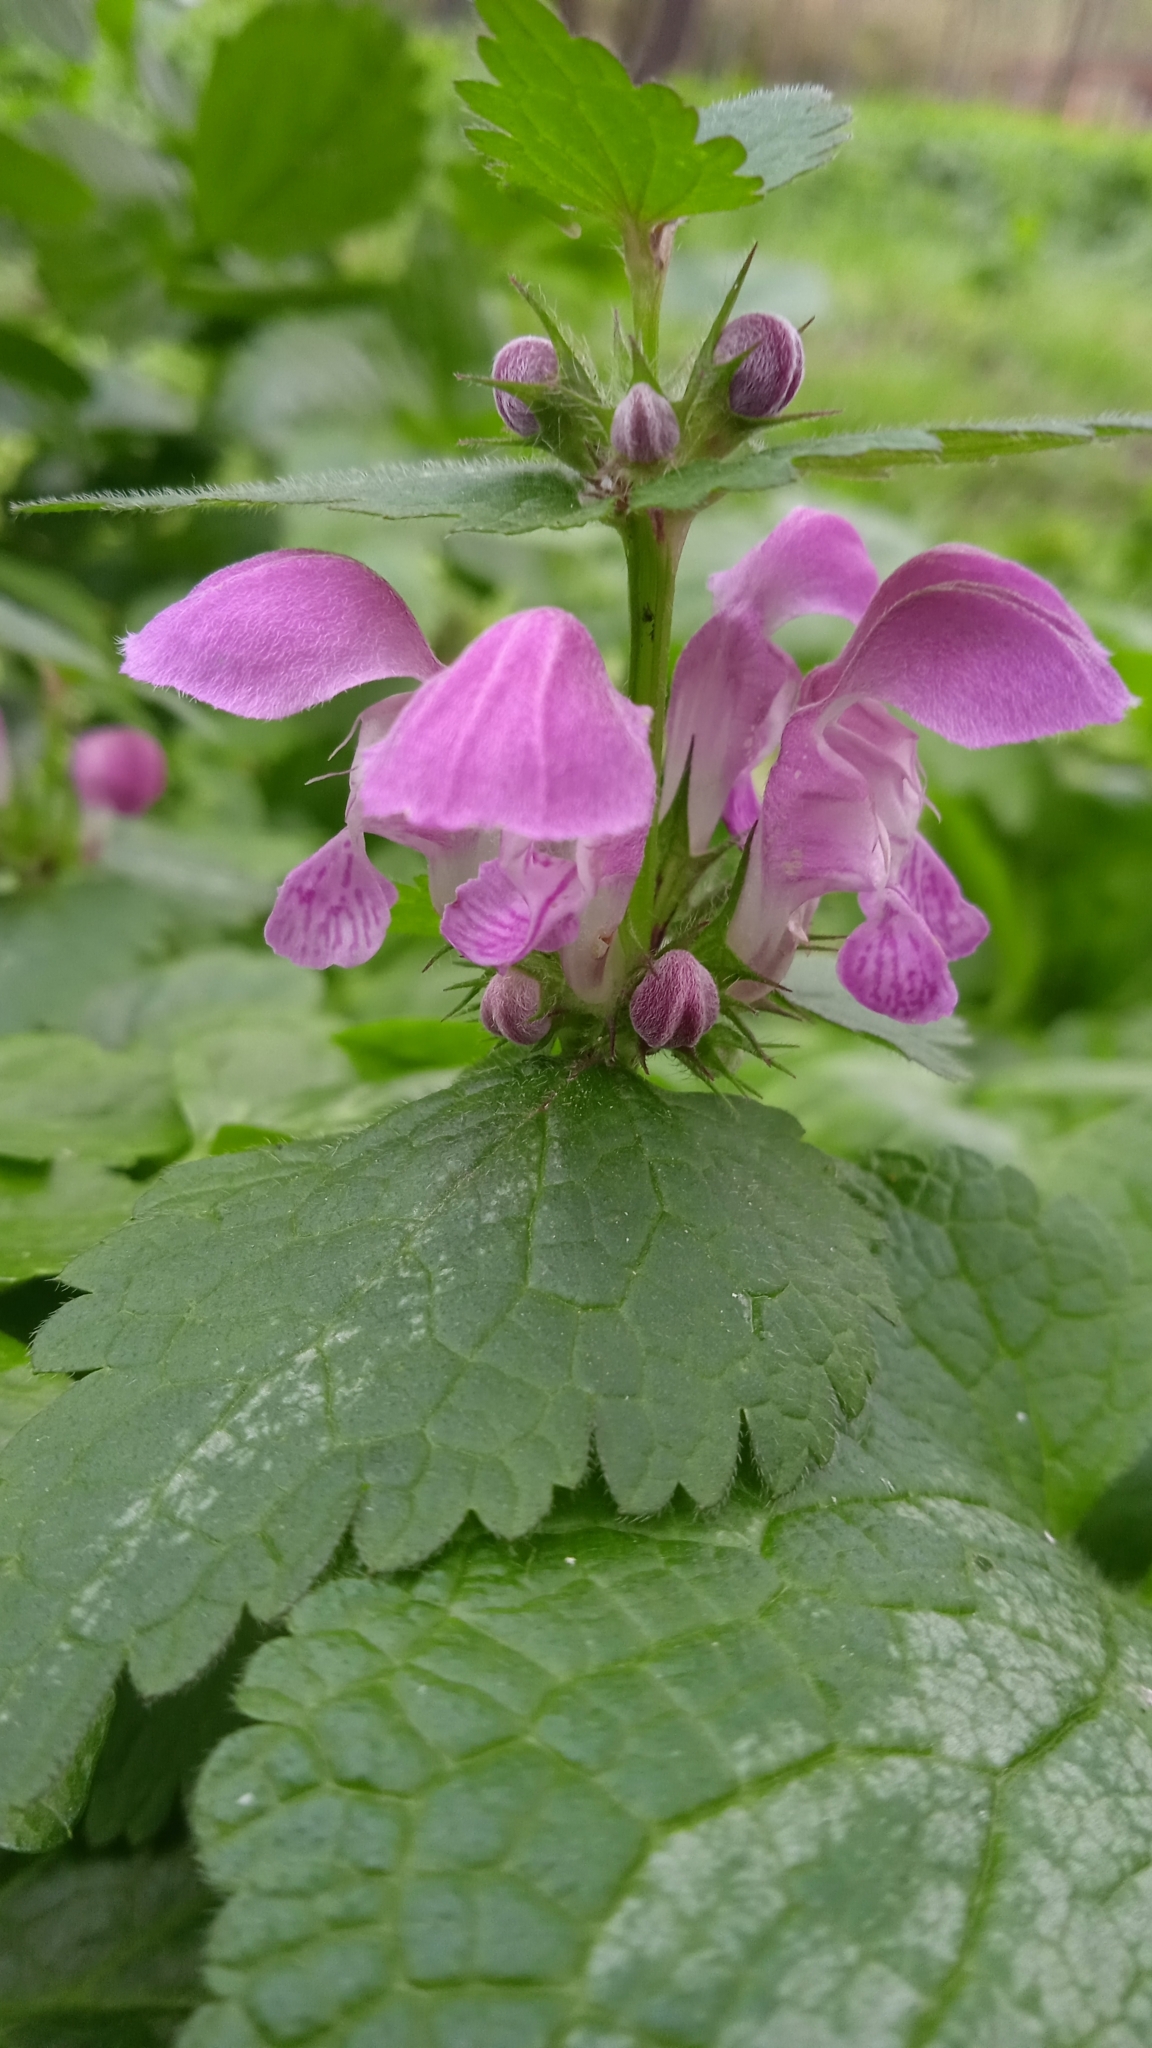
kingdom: Plantae
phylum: Tracheophyta
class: Magnoliopsida
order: Lamiales
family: Lamiaceae
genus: Lamium
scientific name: Lamium maculatum
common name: Spotted dead-nettle
